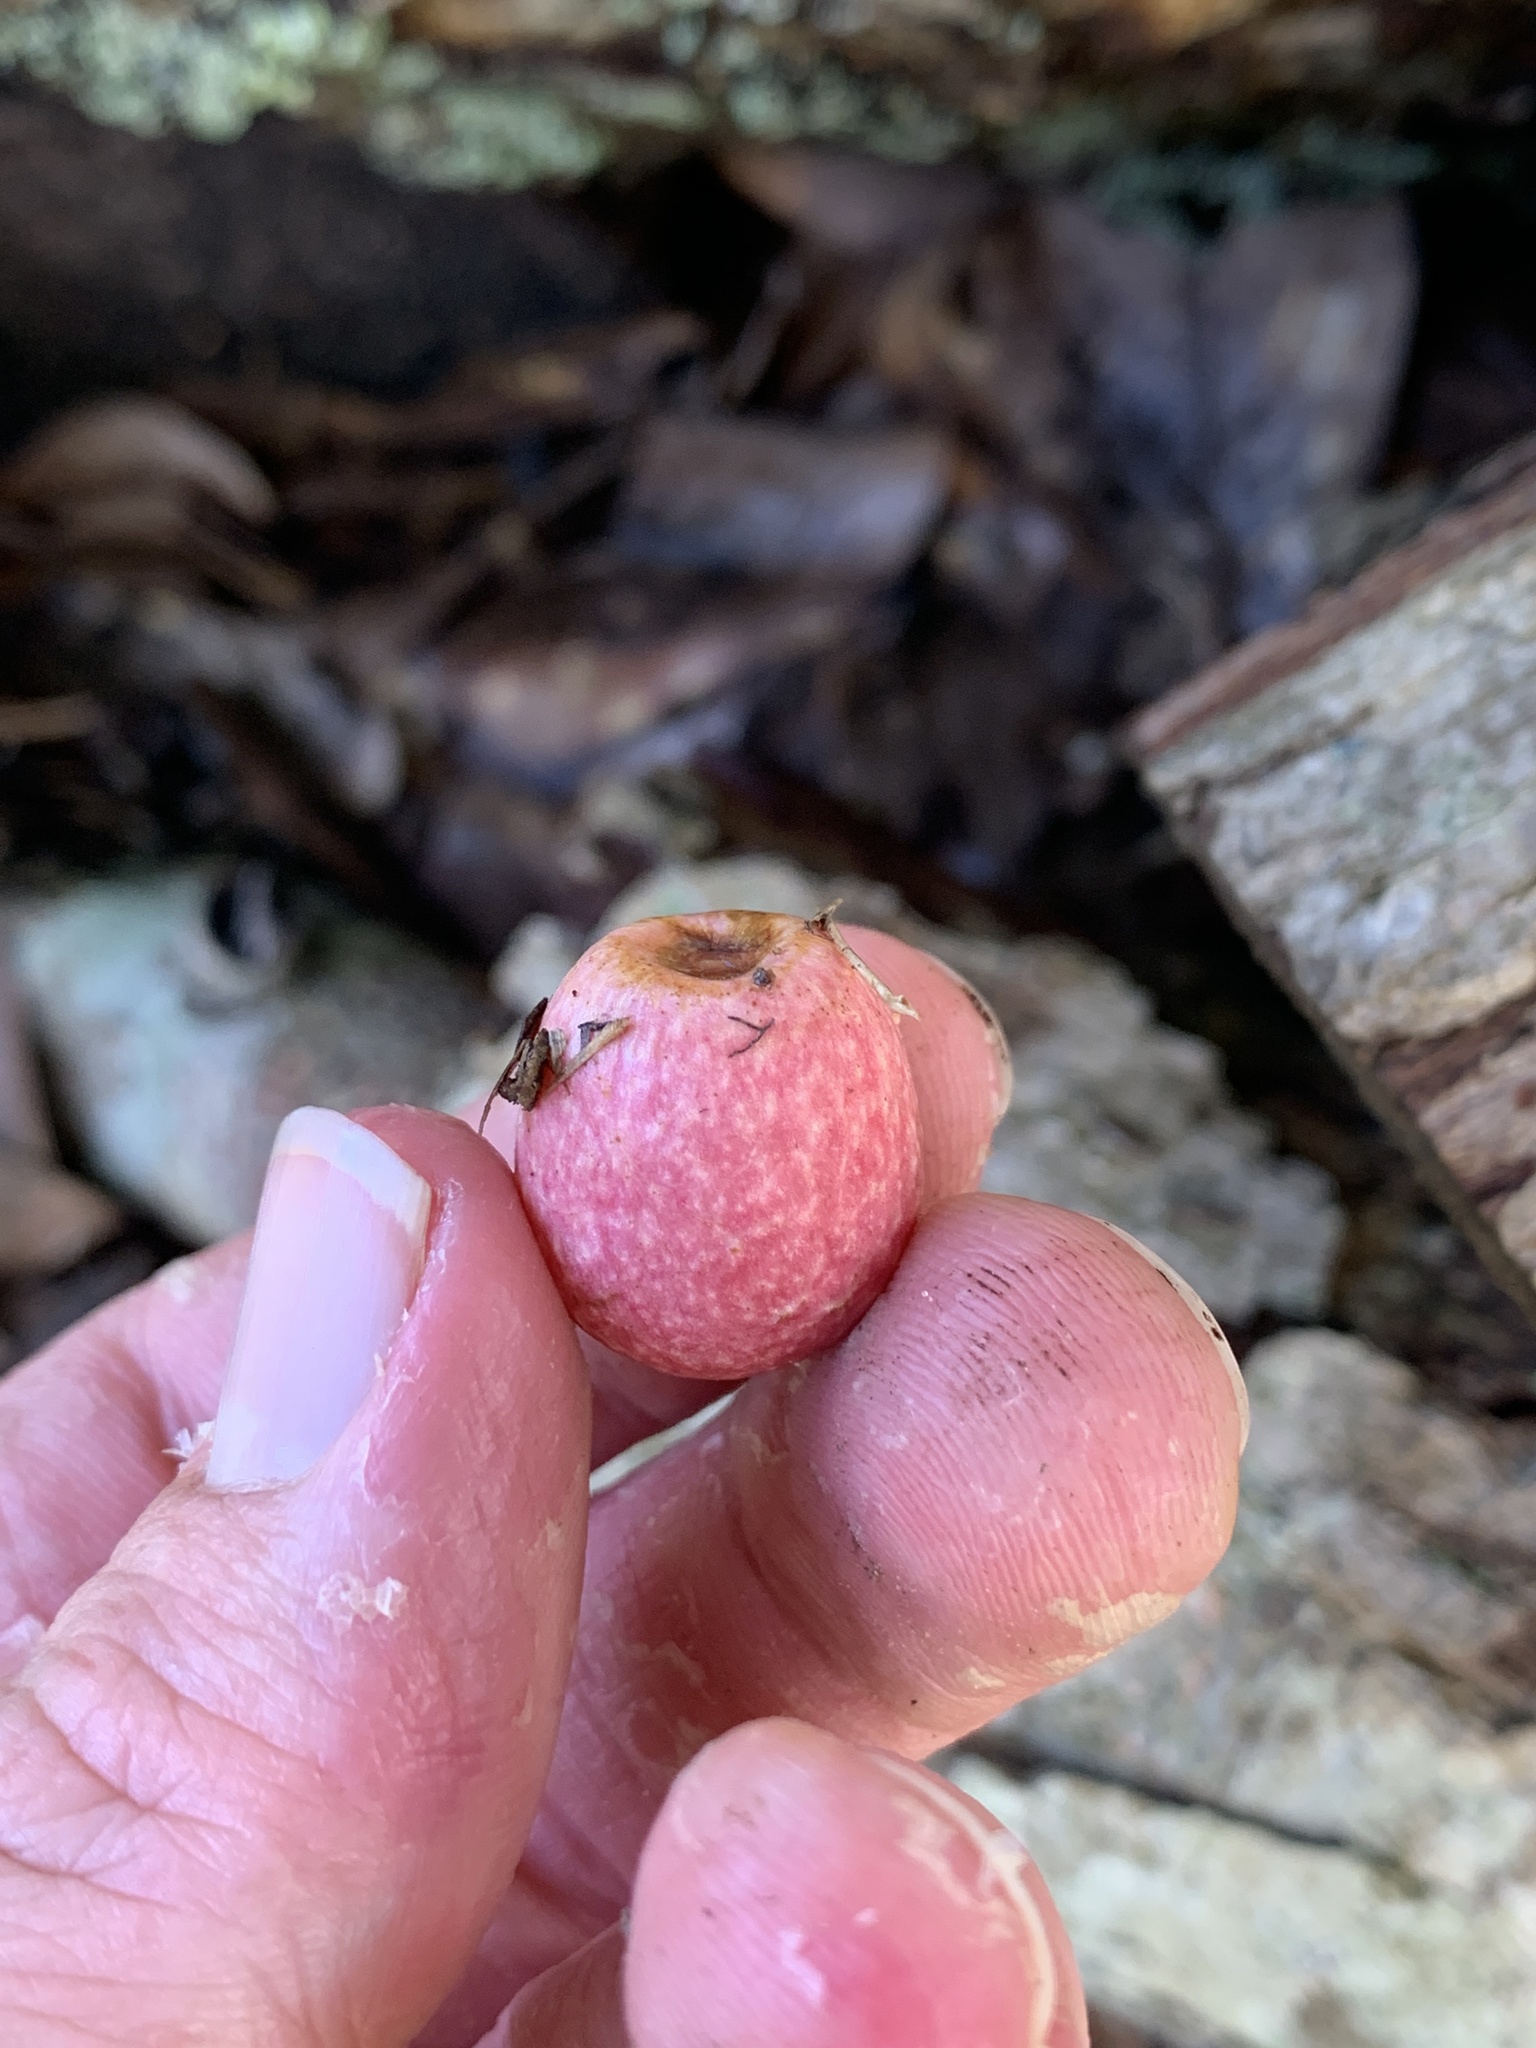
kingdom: Animalia
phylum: Arthropoda
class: Insecta
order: Hymenoptera
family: Cynipidae
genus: Amphibolips
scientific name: Amphibolips
